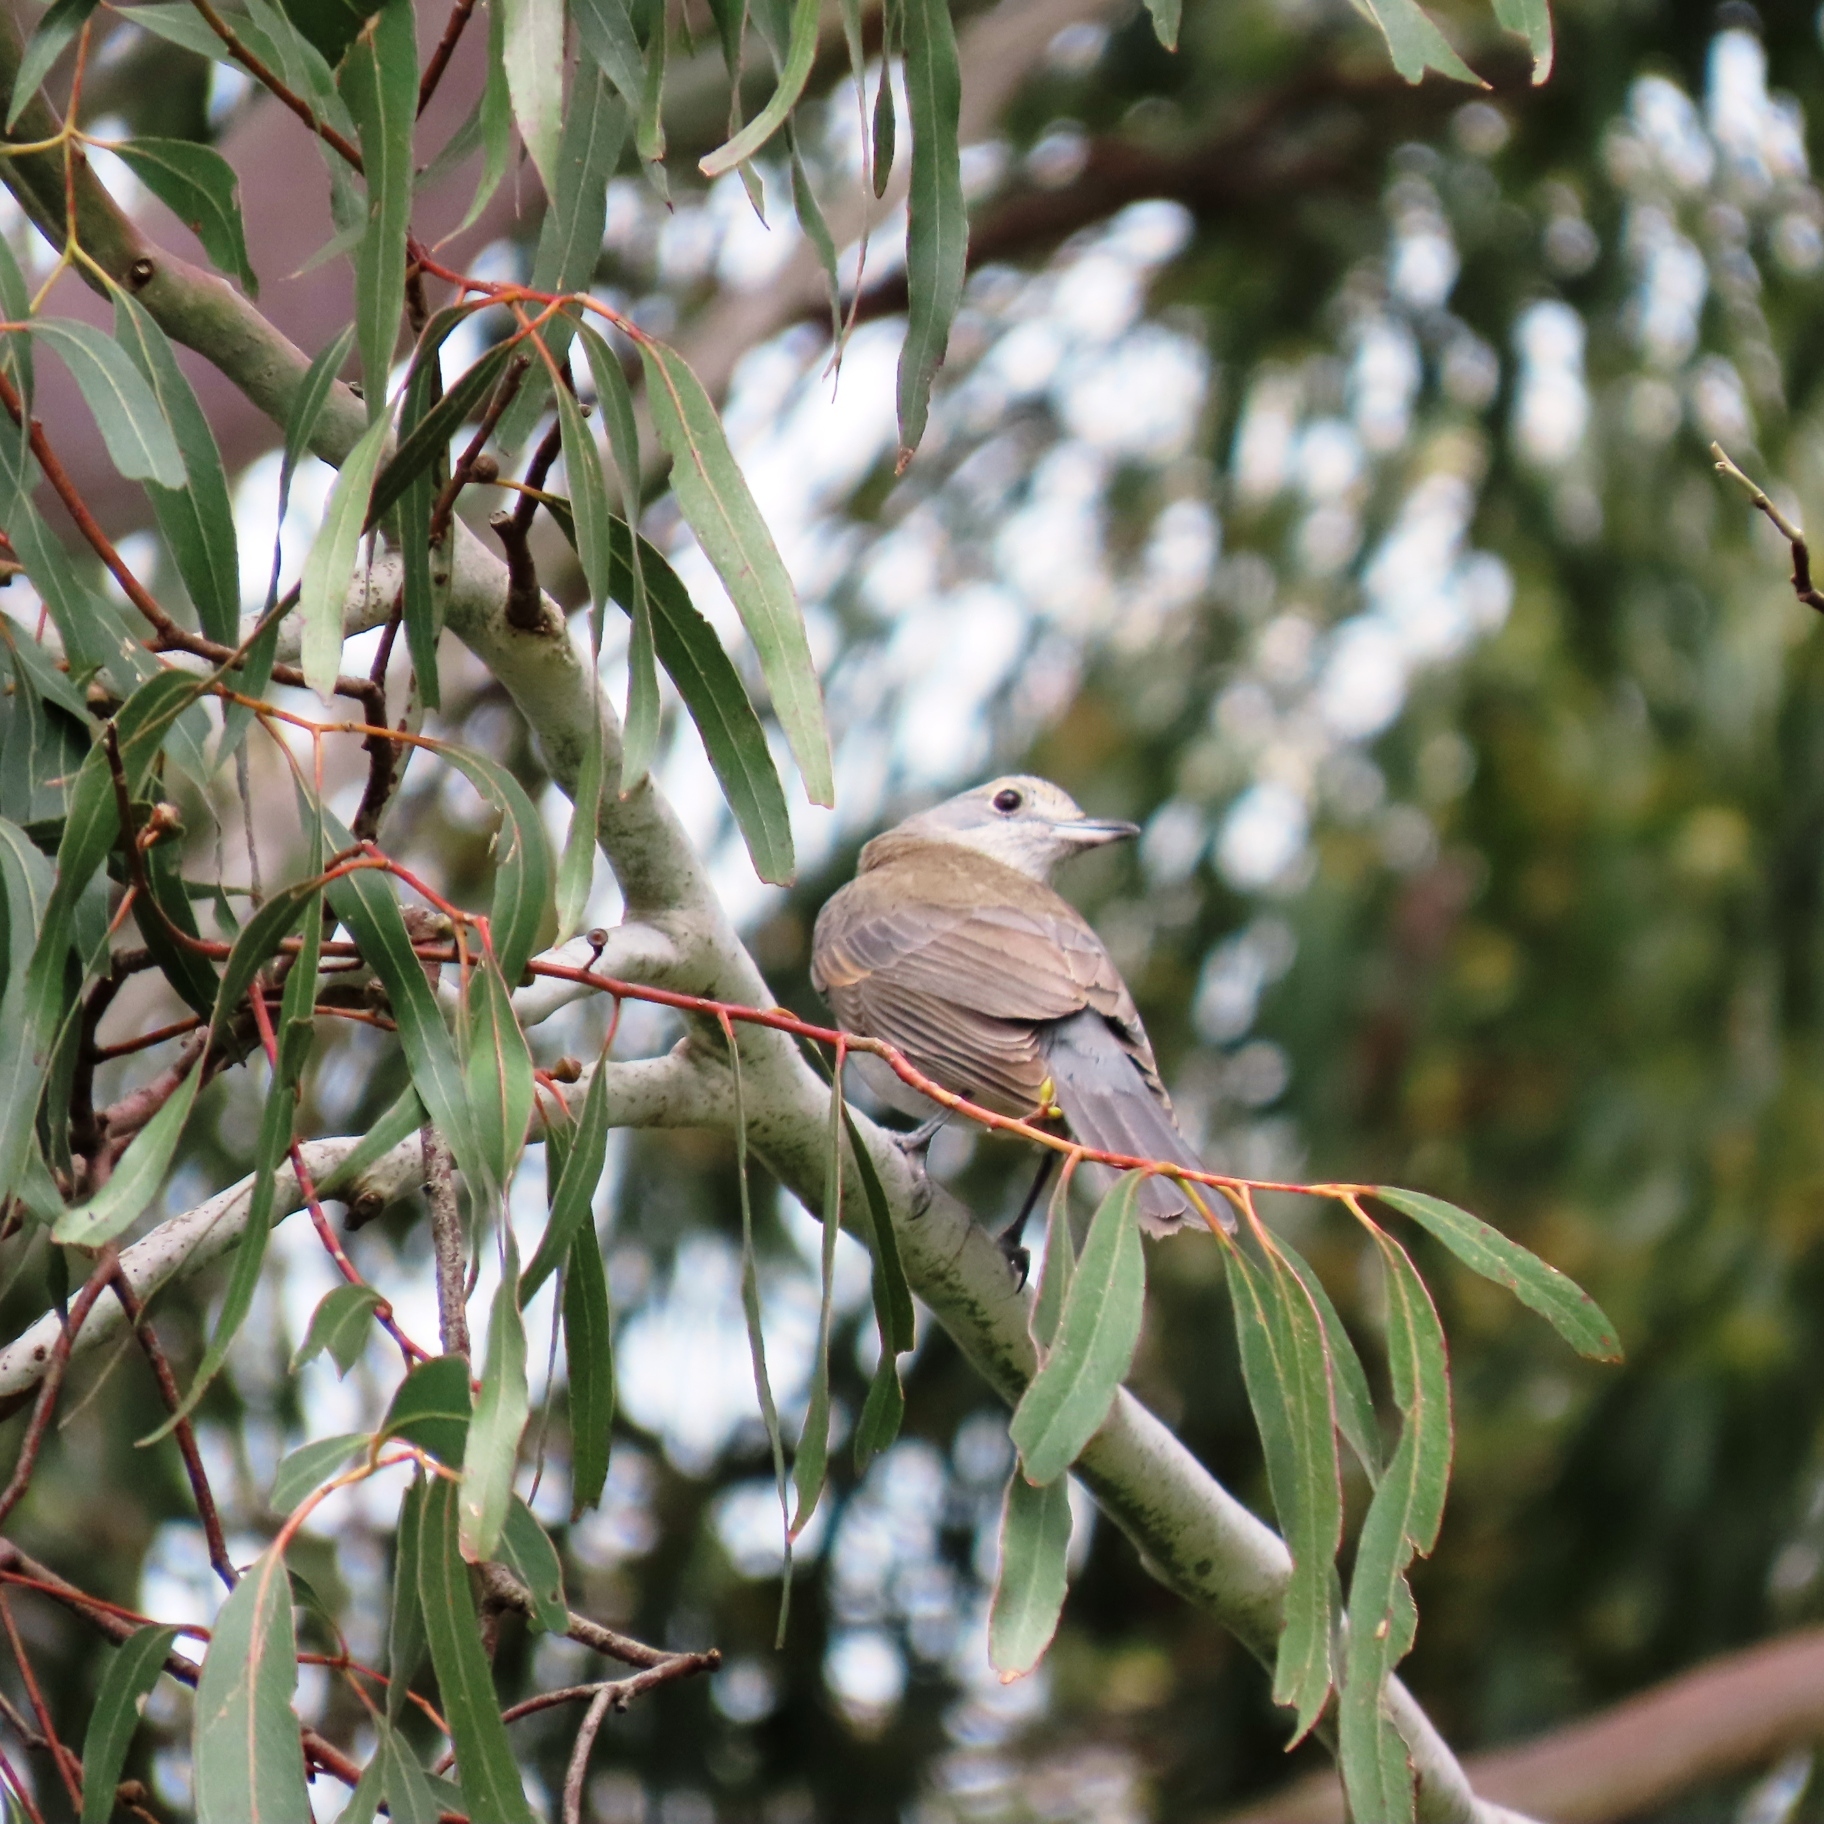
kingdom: Animalia
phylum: Chordata
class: Aves
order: Passeriformes
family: Pachycephalidae
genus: Colluricincla
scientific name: Colluricincla harmonica
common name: Grey shrikethrush
